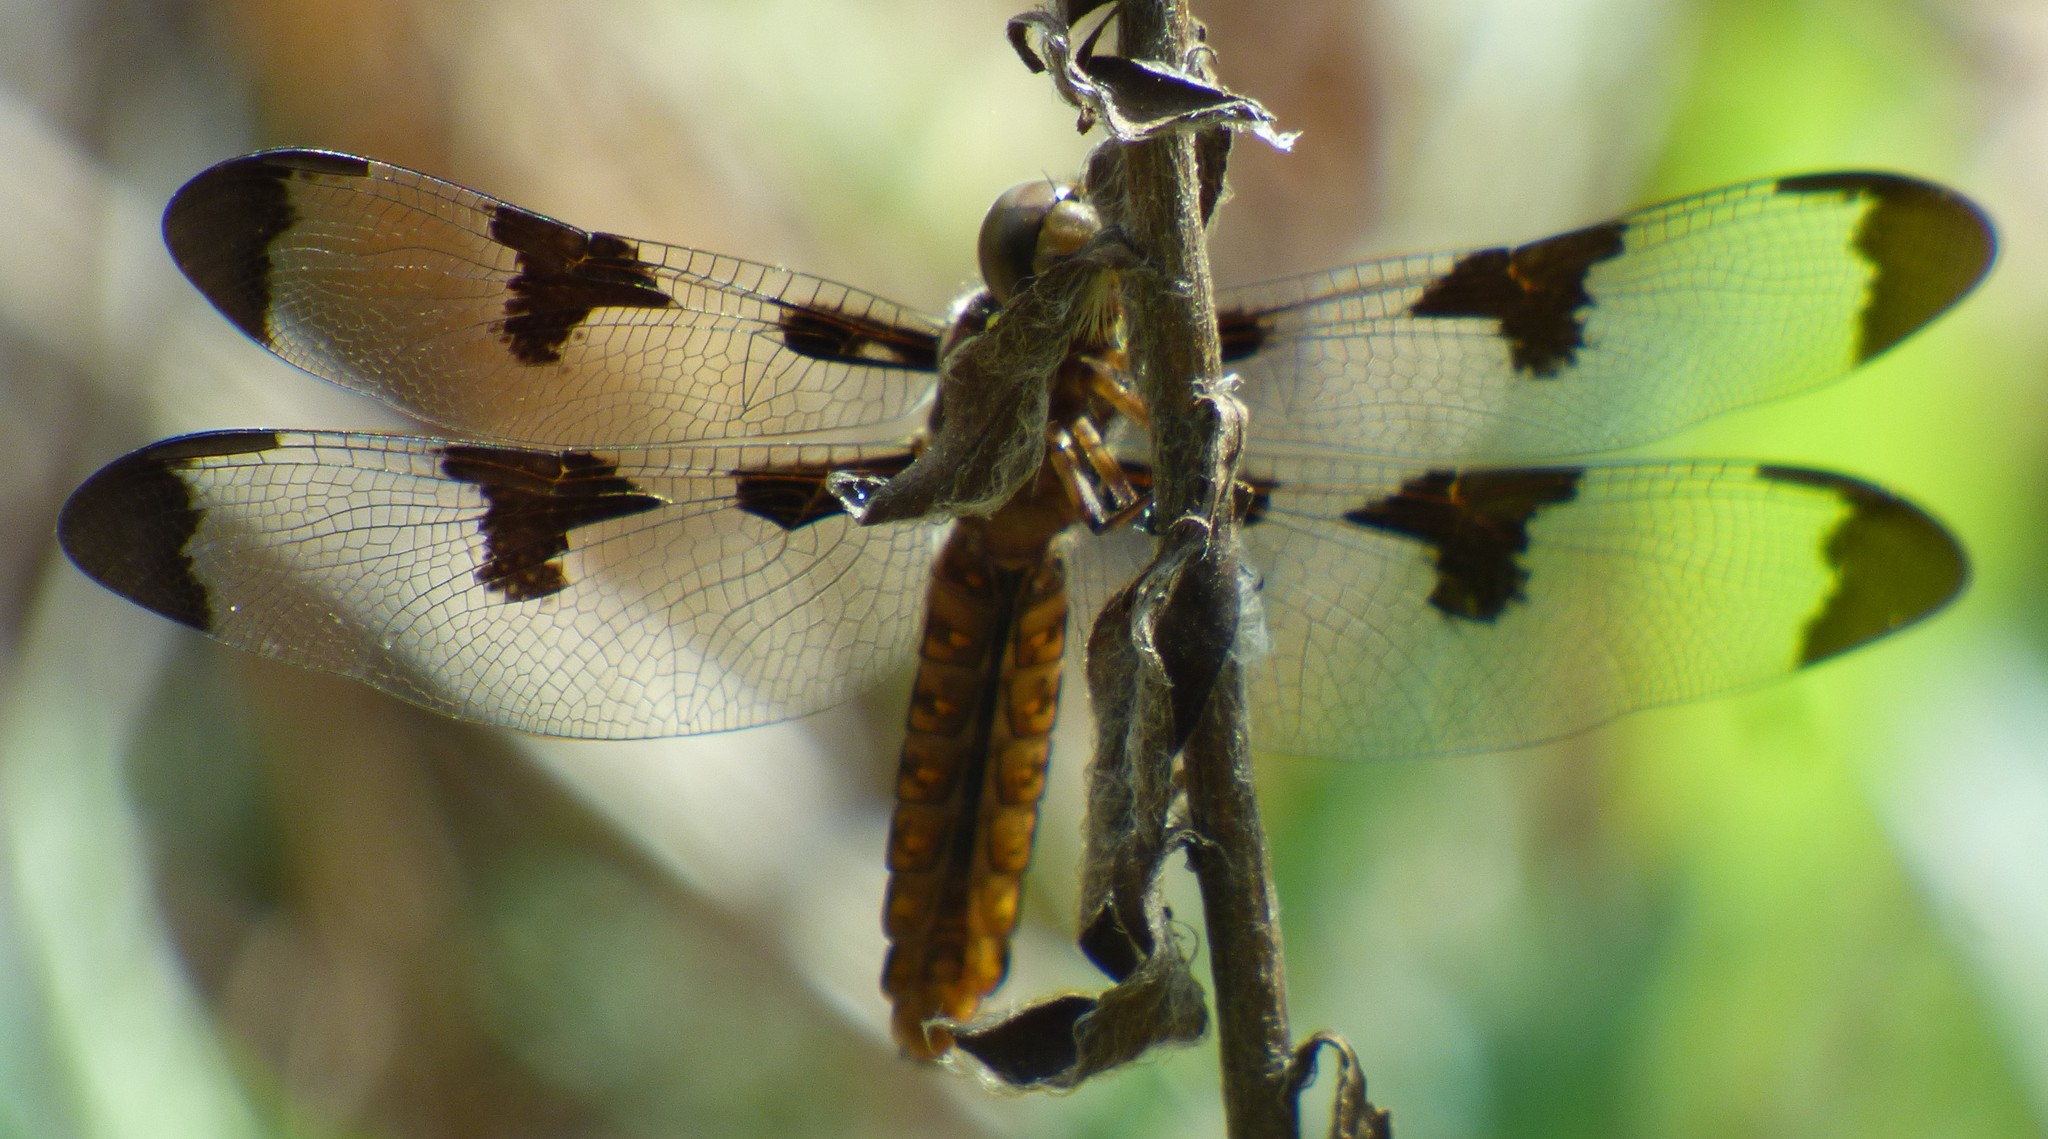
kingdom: Animalia
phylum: Arthropoda
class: Insecta
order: Odonata
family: Libellulidae
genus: Plathemis
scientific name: Plathemis lydia
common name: Common whitetail
